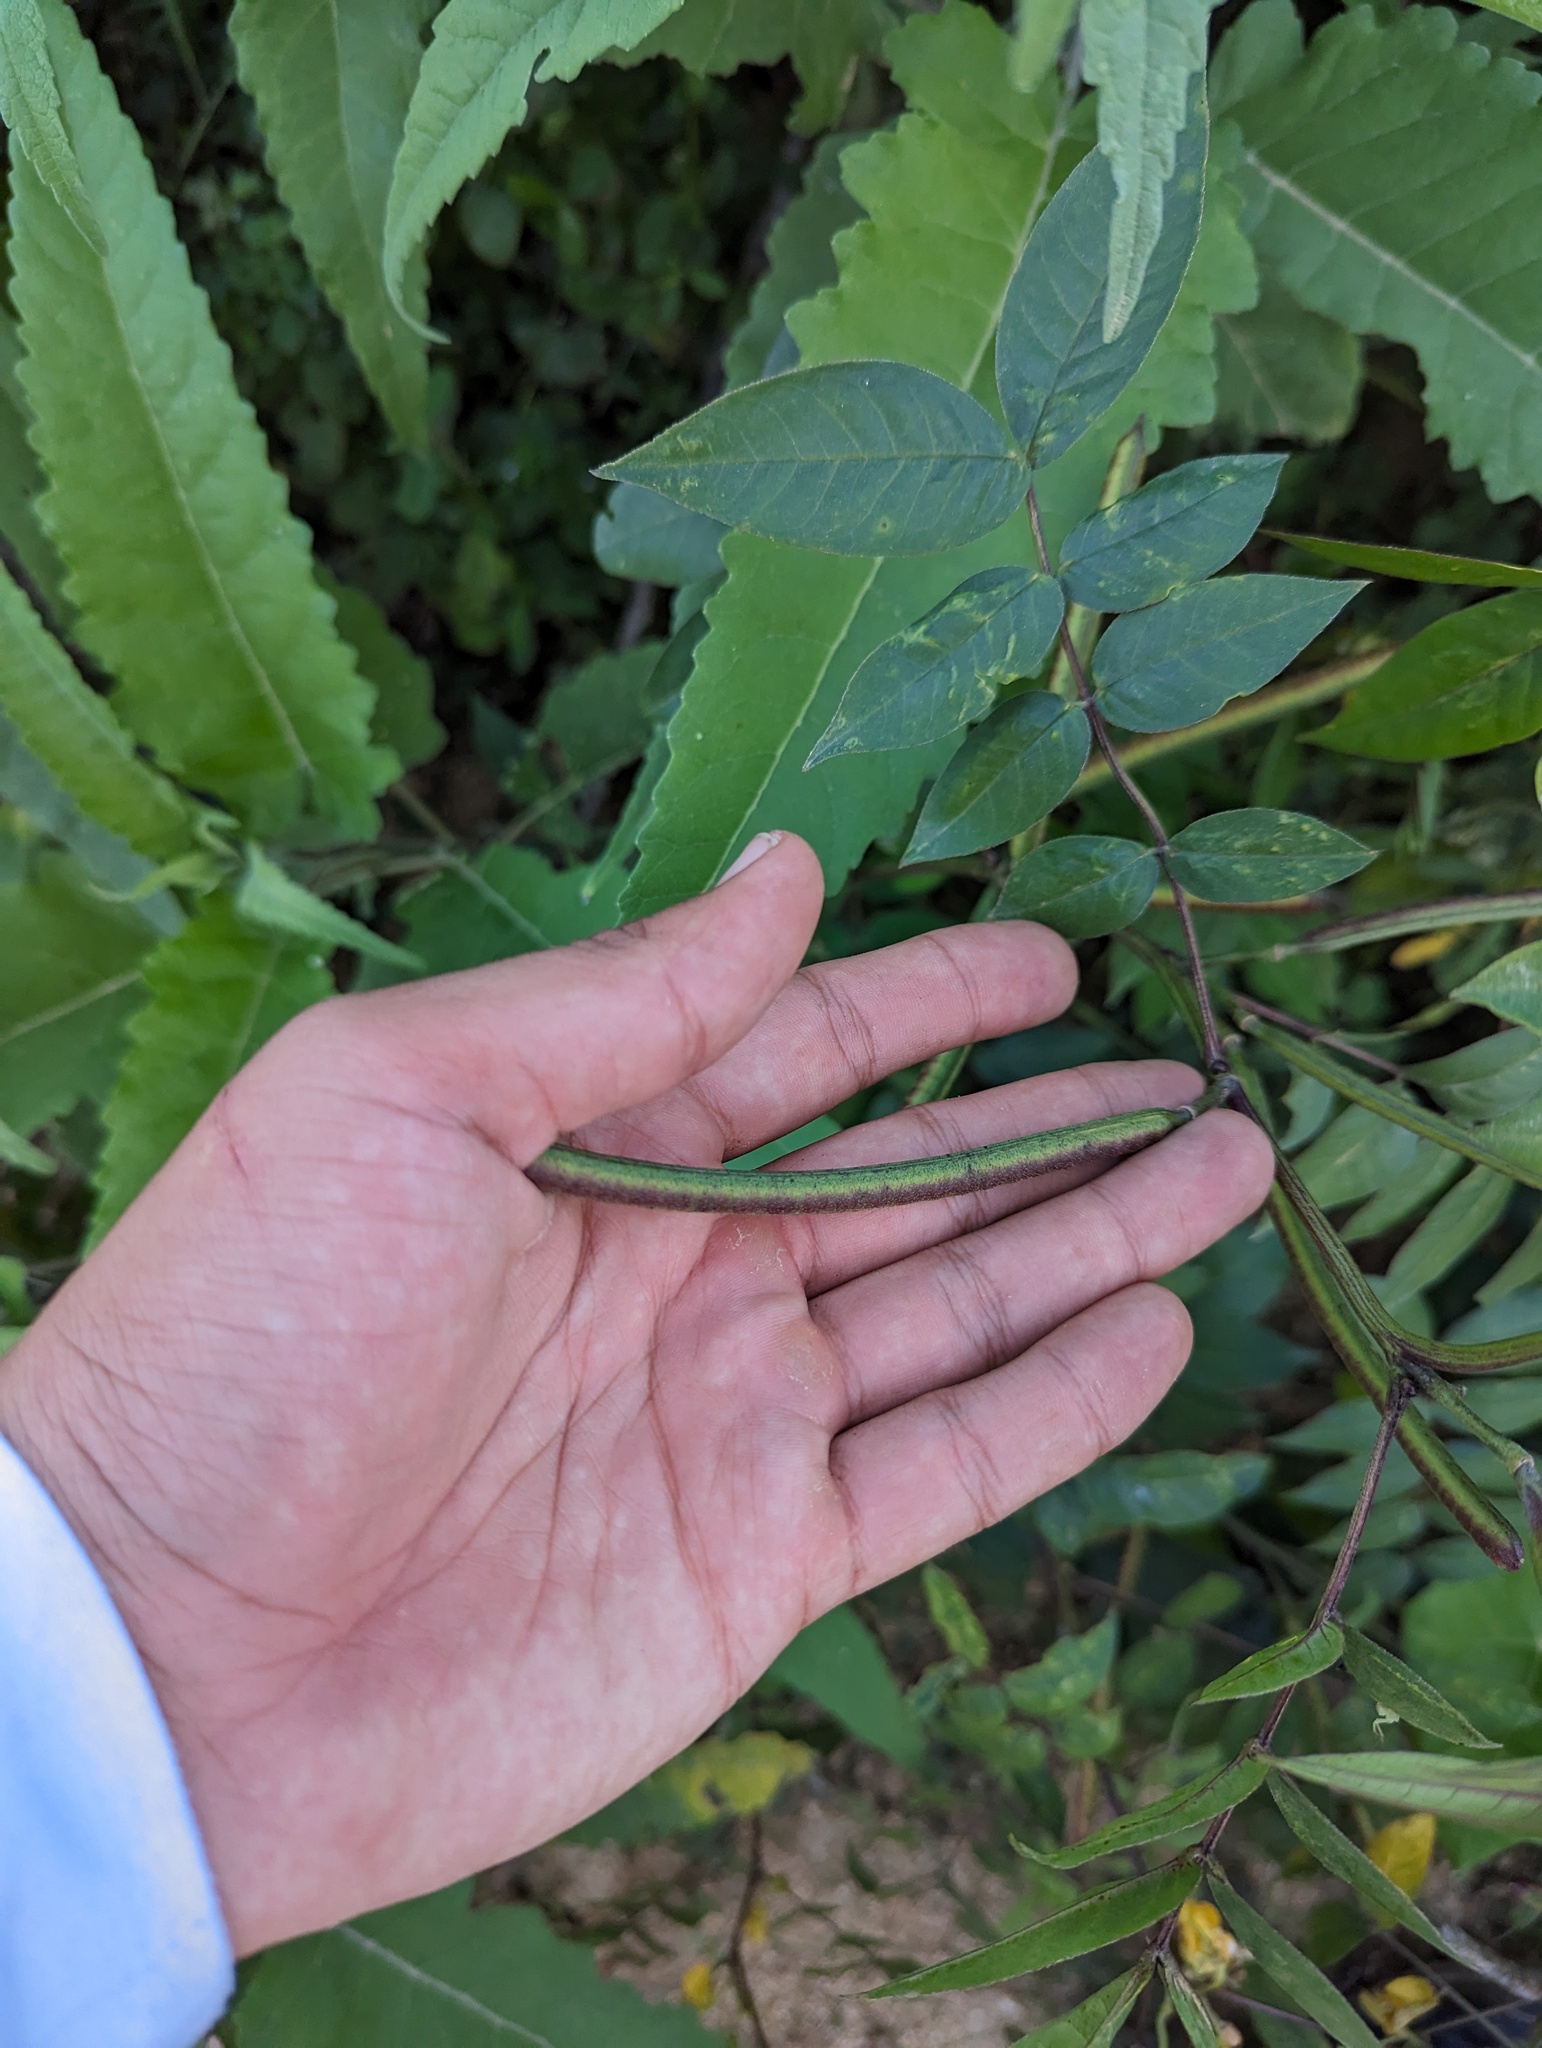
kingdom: Plantae
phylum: Tracheophyta
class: Magnoliopsida
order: Fabales
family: Fabaceae
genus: Senna
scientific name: Senna occidentalis
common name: Septicweed
